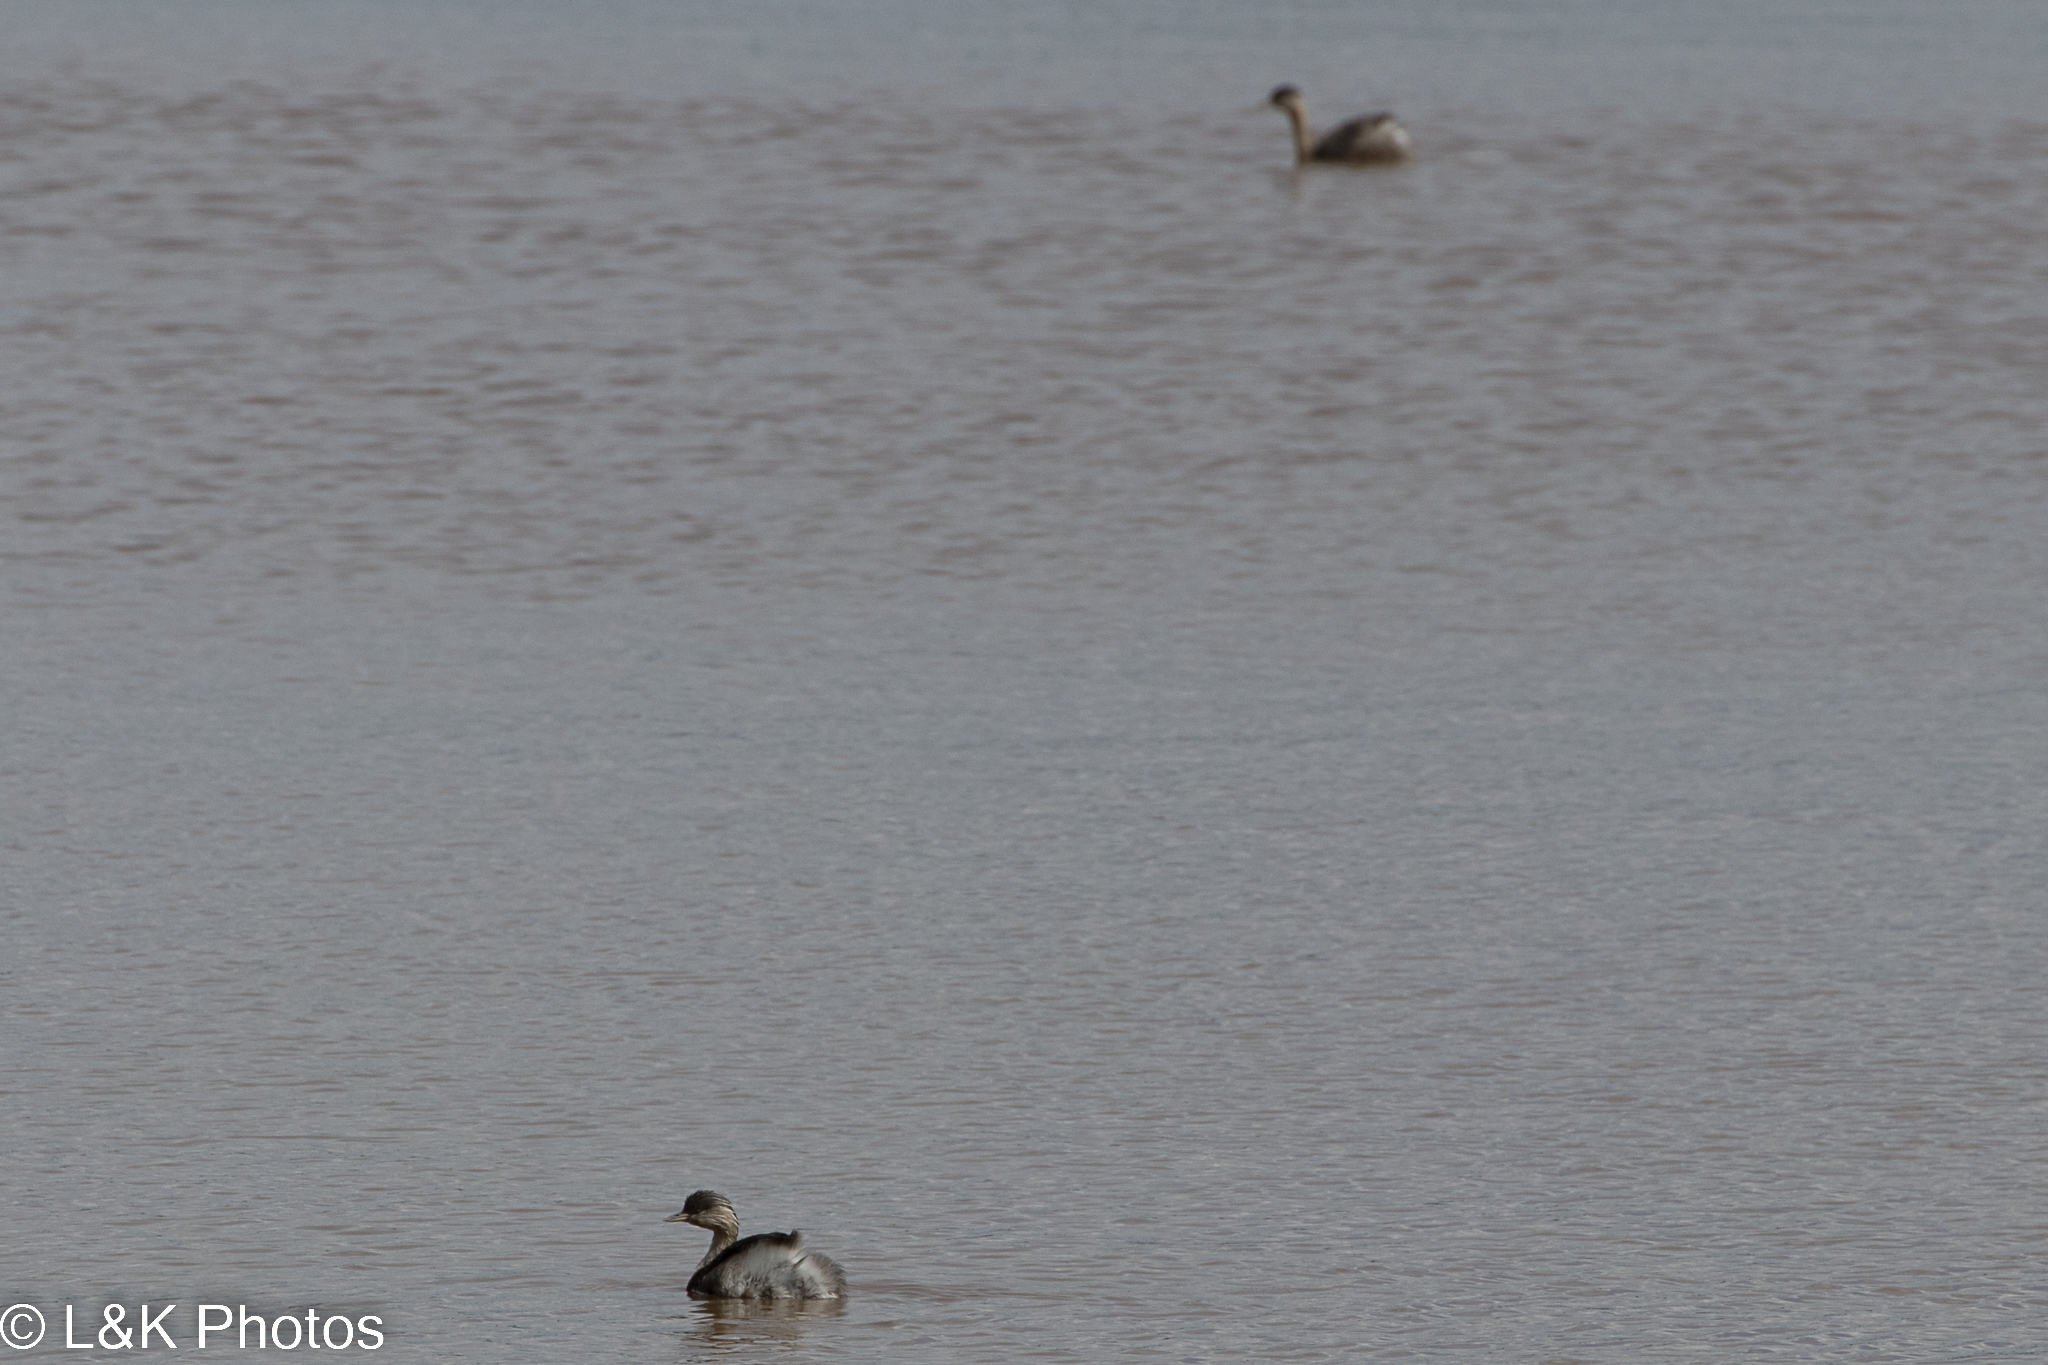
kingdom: Animalia
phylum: Chordata
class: Aves
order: Podicipediformes
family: Podicipedidae
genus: Poliocephalus
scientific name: Poliocephalus poliocephalus
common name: Hoary-headed grebe
